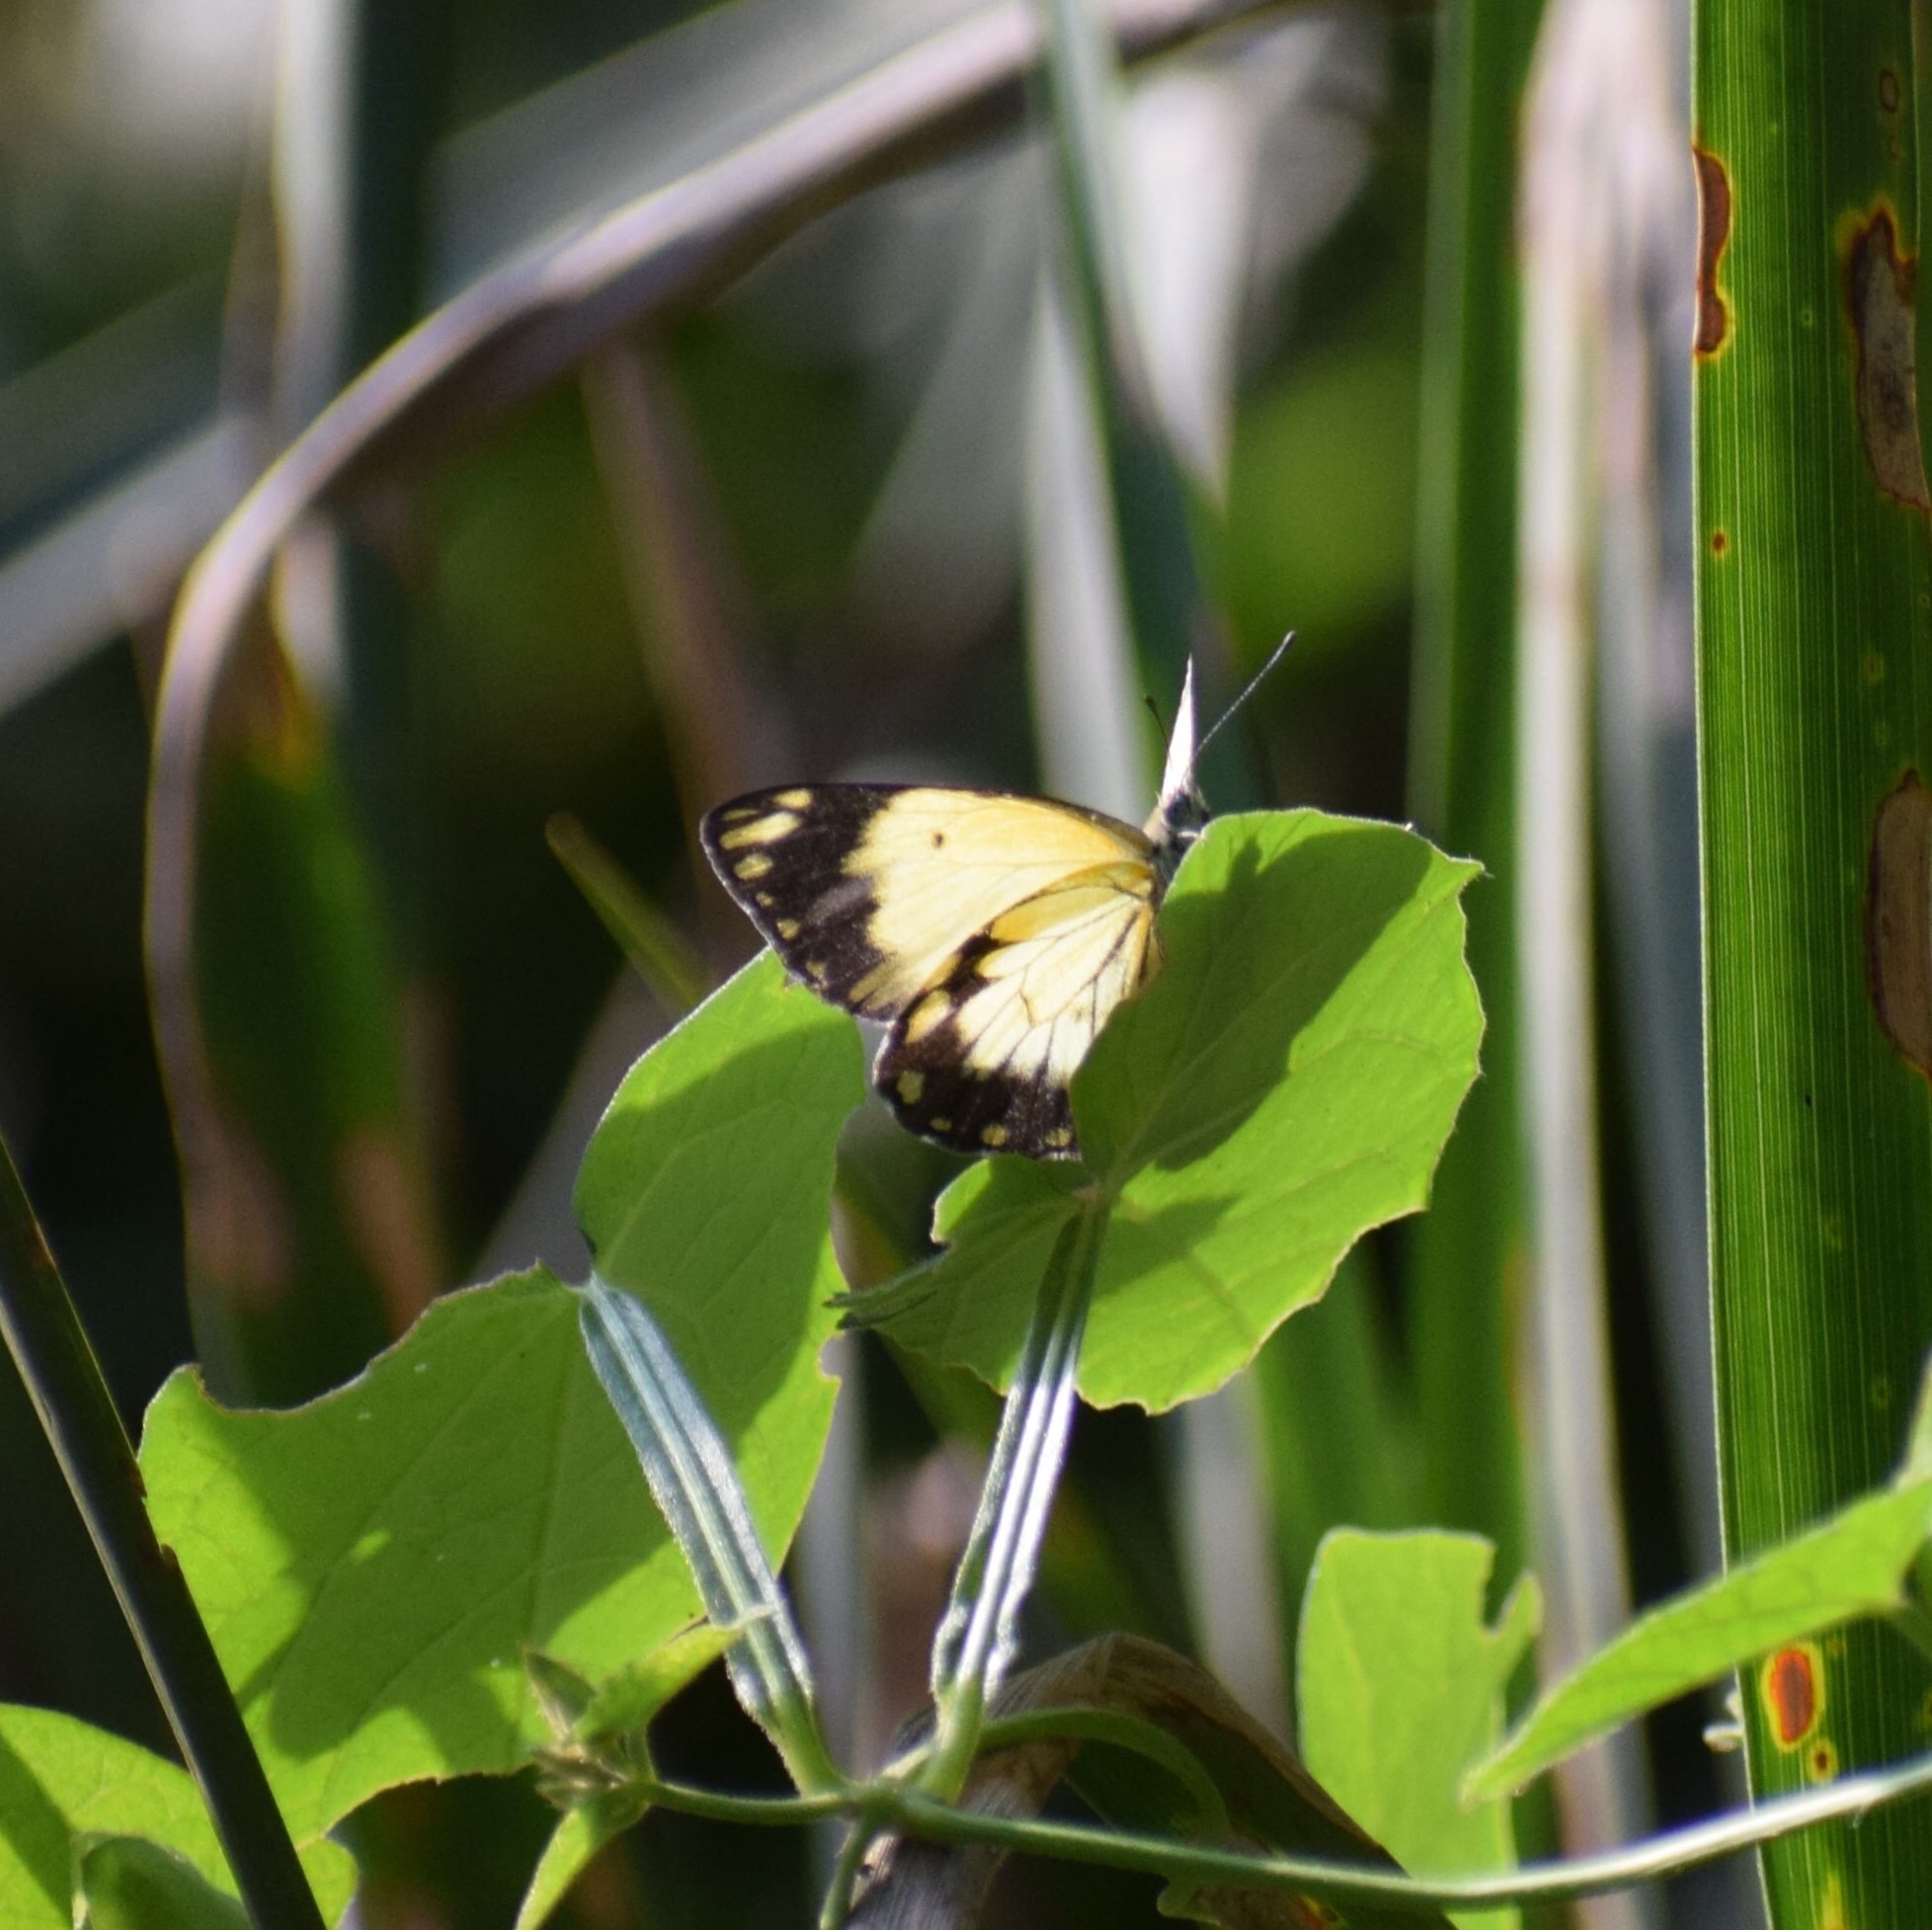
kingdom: Animalia
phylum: Arthropoda
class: Insecta
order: Lepidoptera
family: Pieridae
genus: Belenois
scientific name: Belenois creona
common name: African caper white
